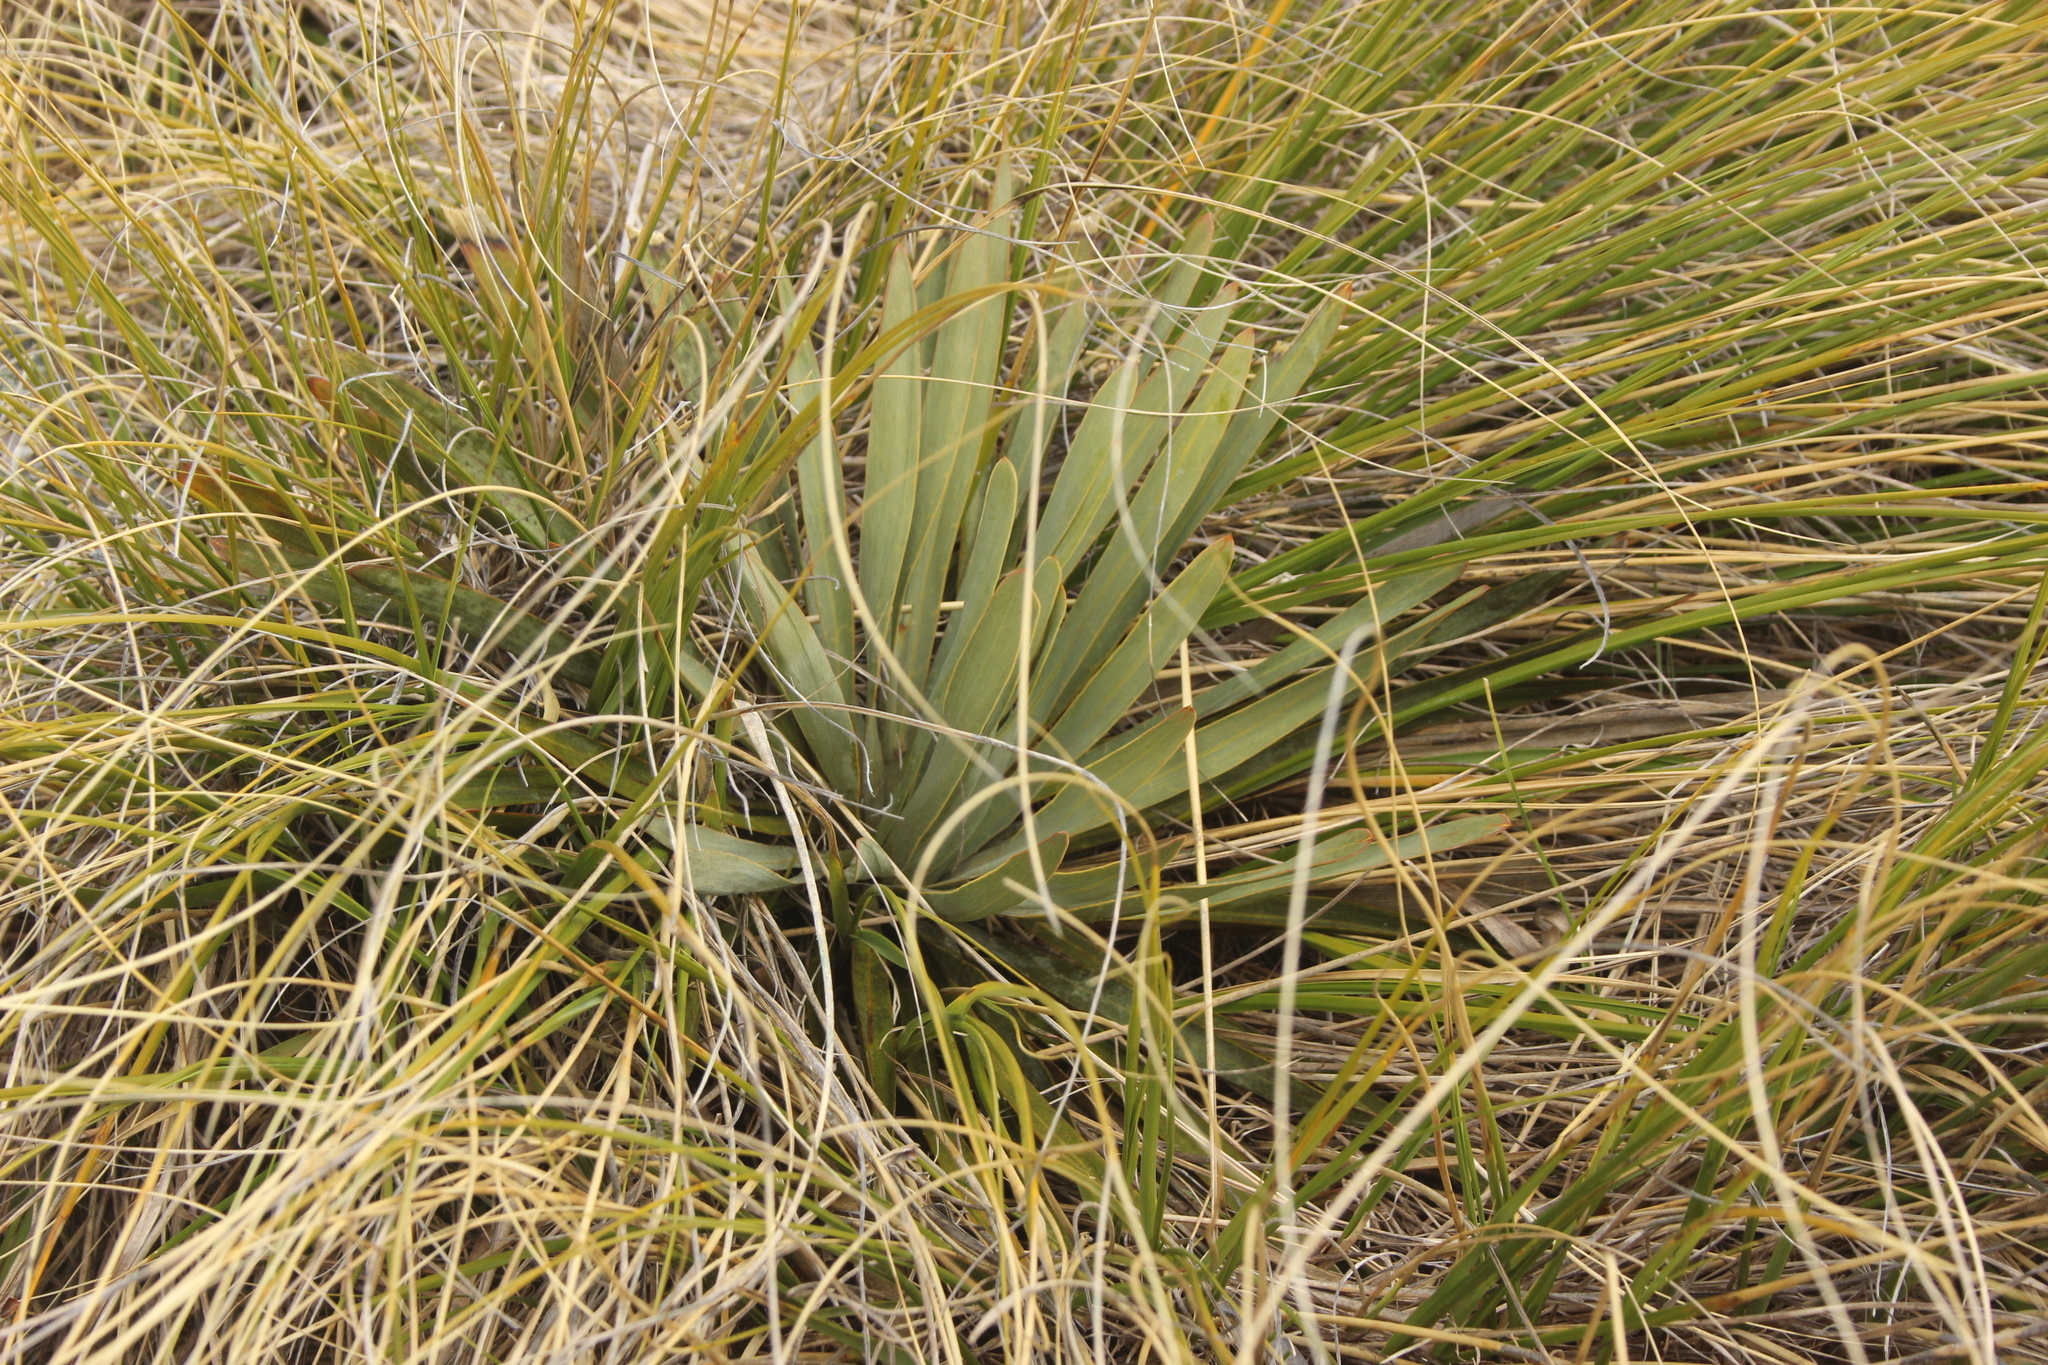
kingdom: Plantae
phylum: Tracheophyta
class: Magnoliopsida
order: Apiales
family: Apiaceae
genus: Aciphylla
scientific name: Aciphylla kirkii
